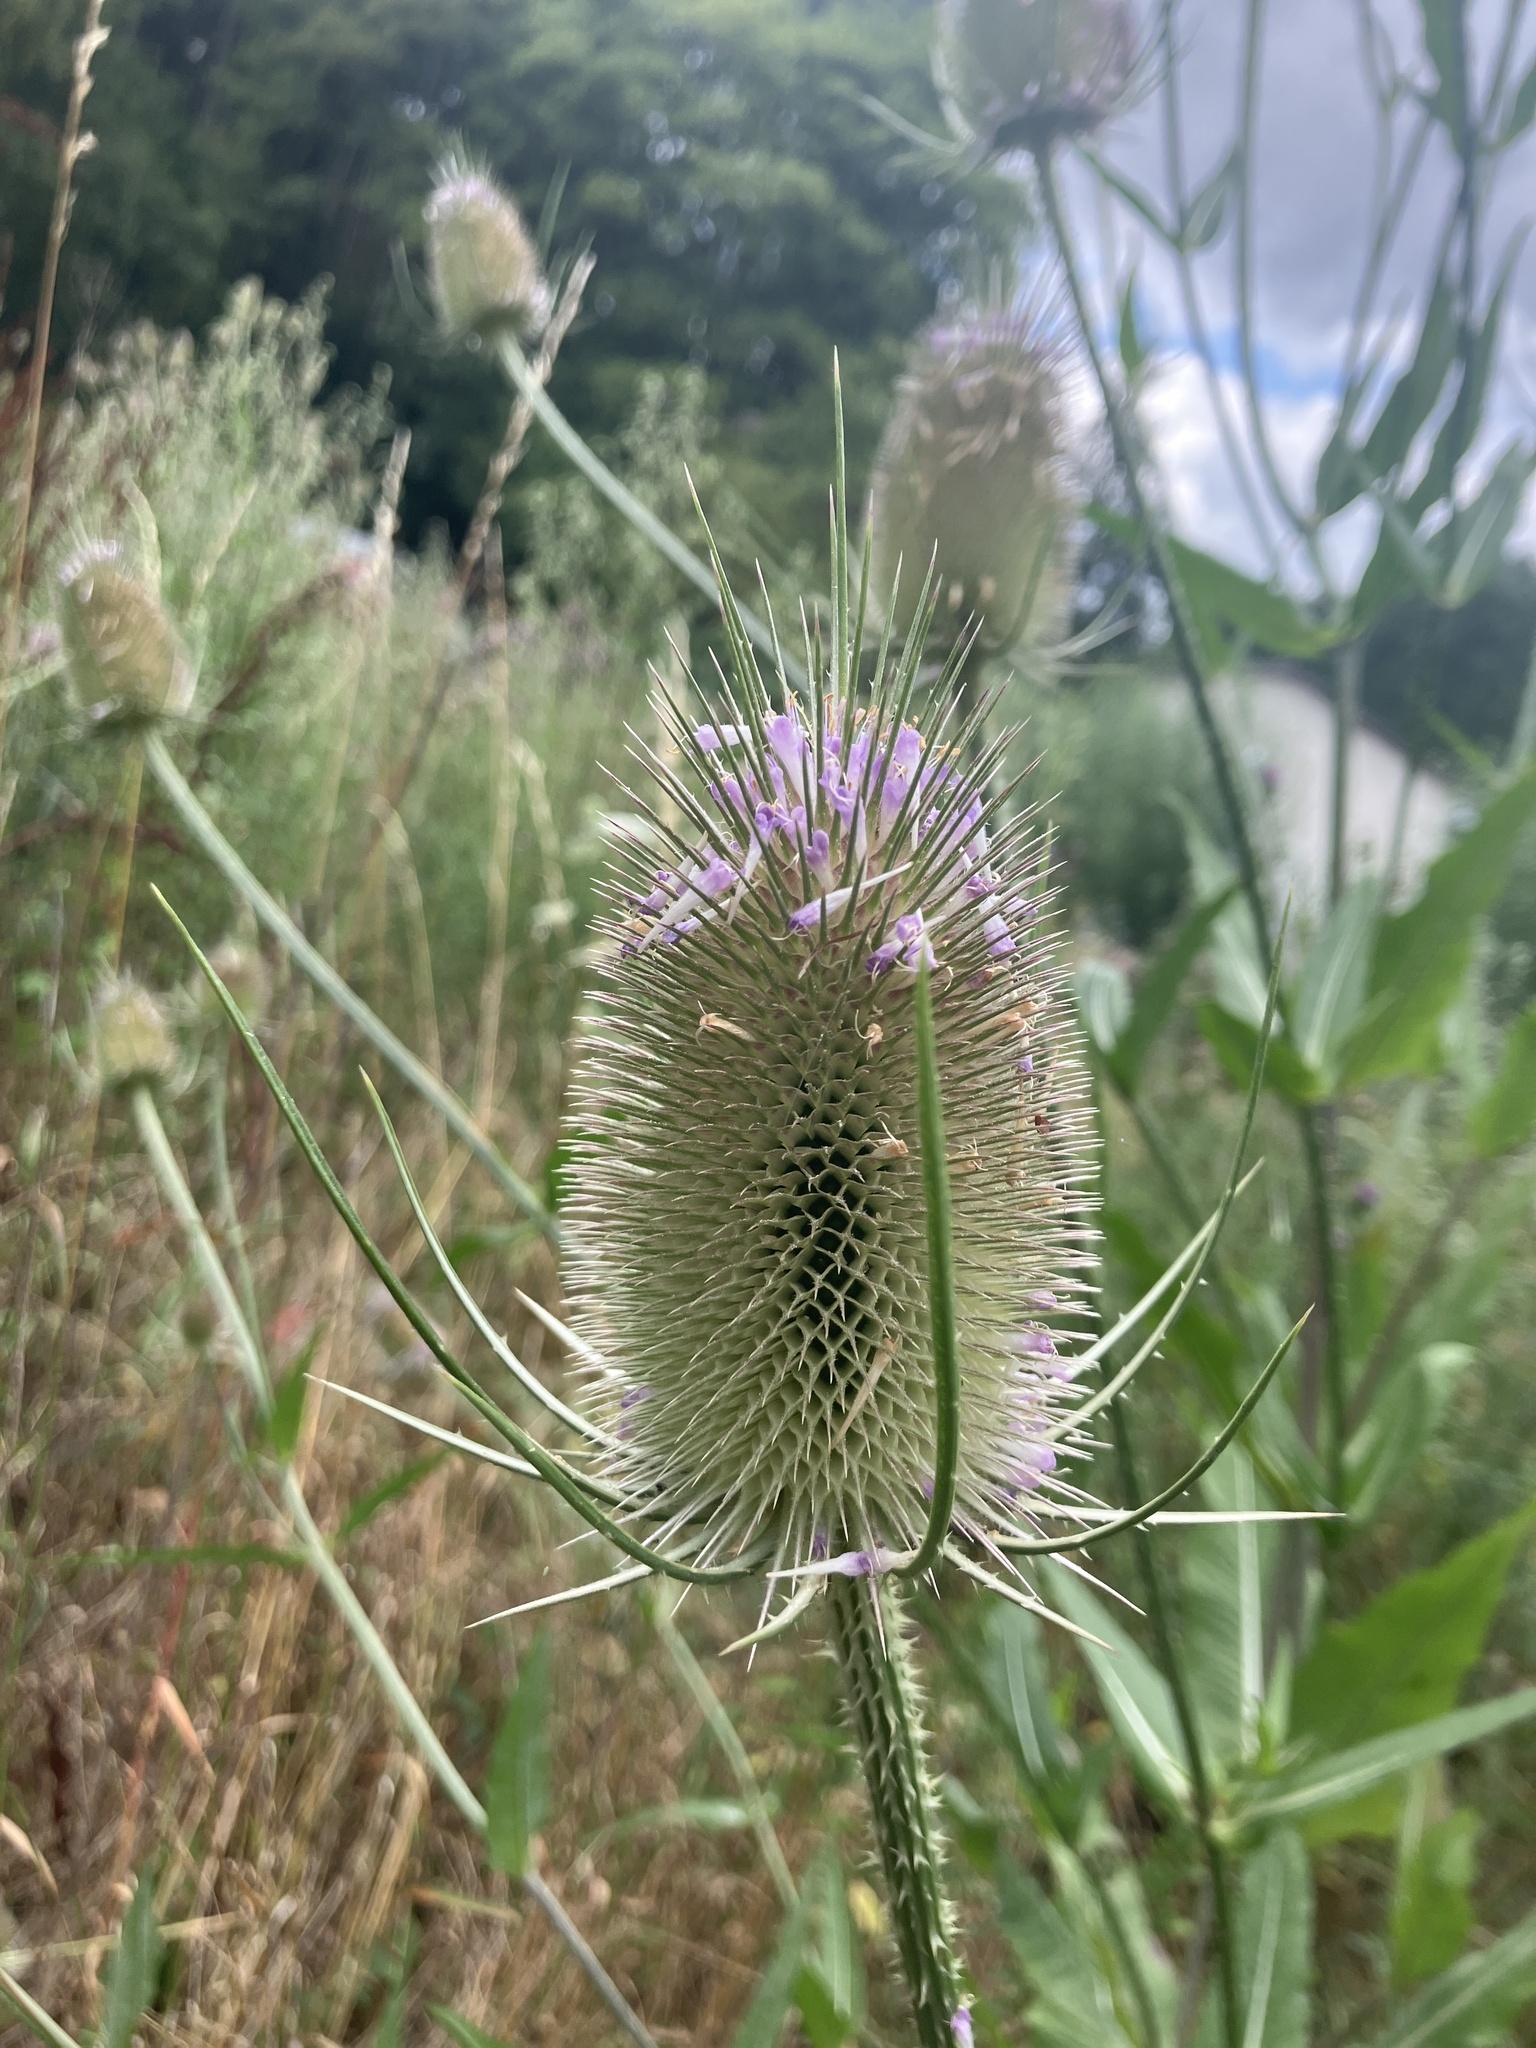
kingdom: Plantae
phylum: Tracheophyta
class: Magnoliopsida
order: Dipsacales
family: Caprifoliaceae
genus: Dipsacus
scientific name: Dipsacus fullonum
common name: Teasel
